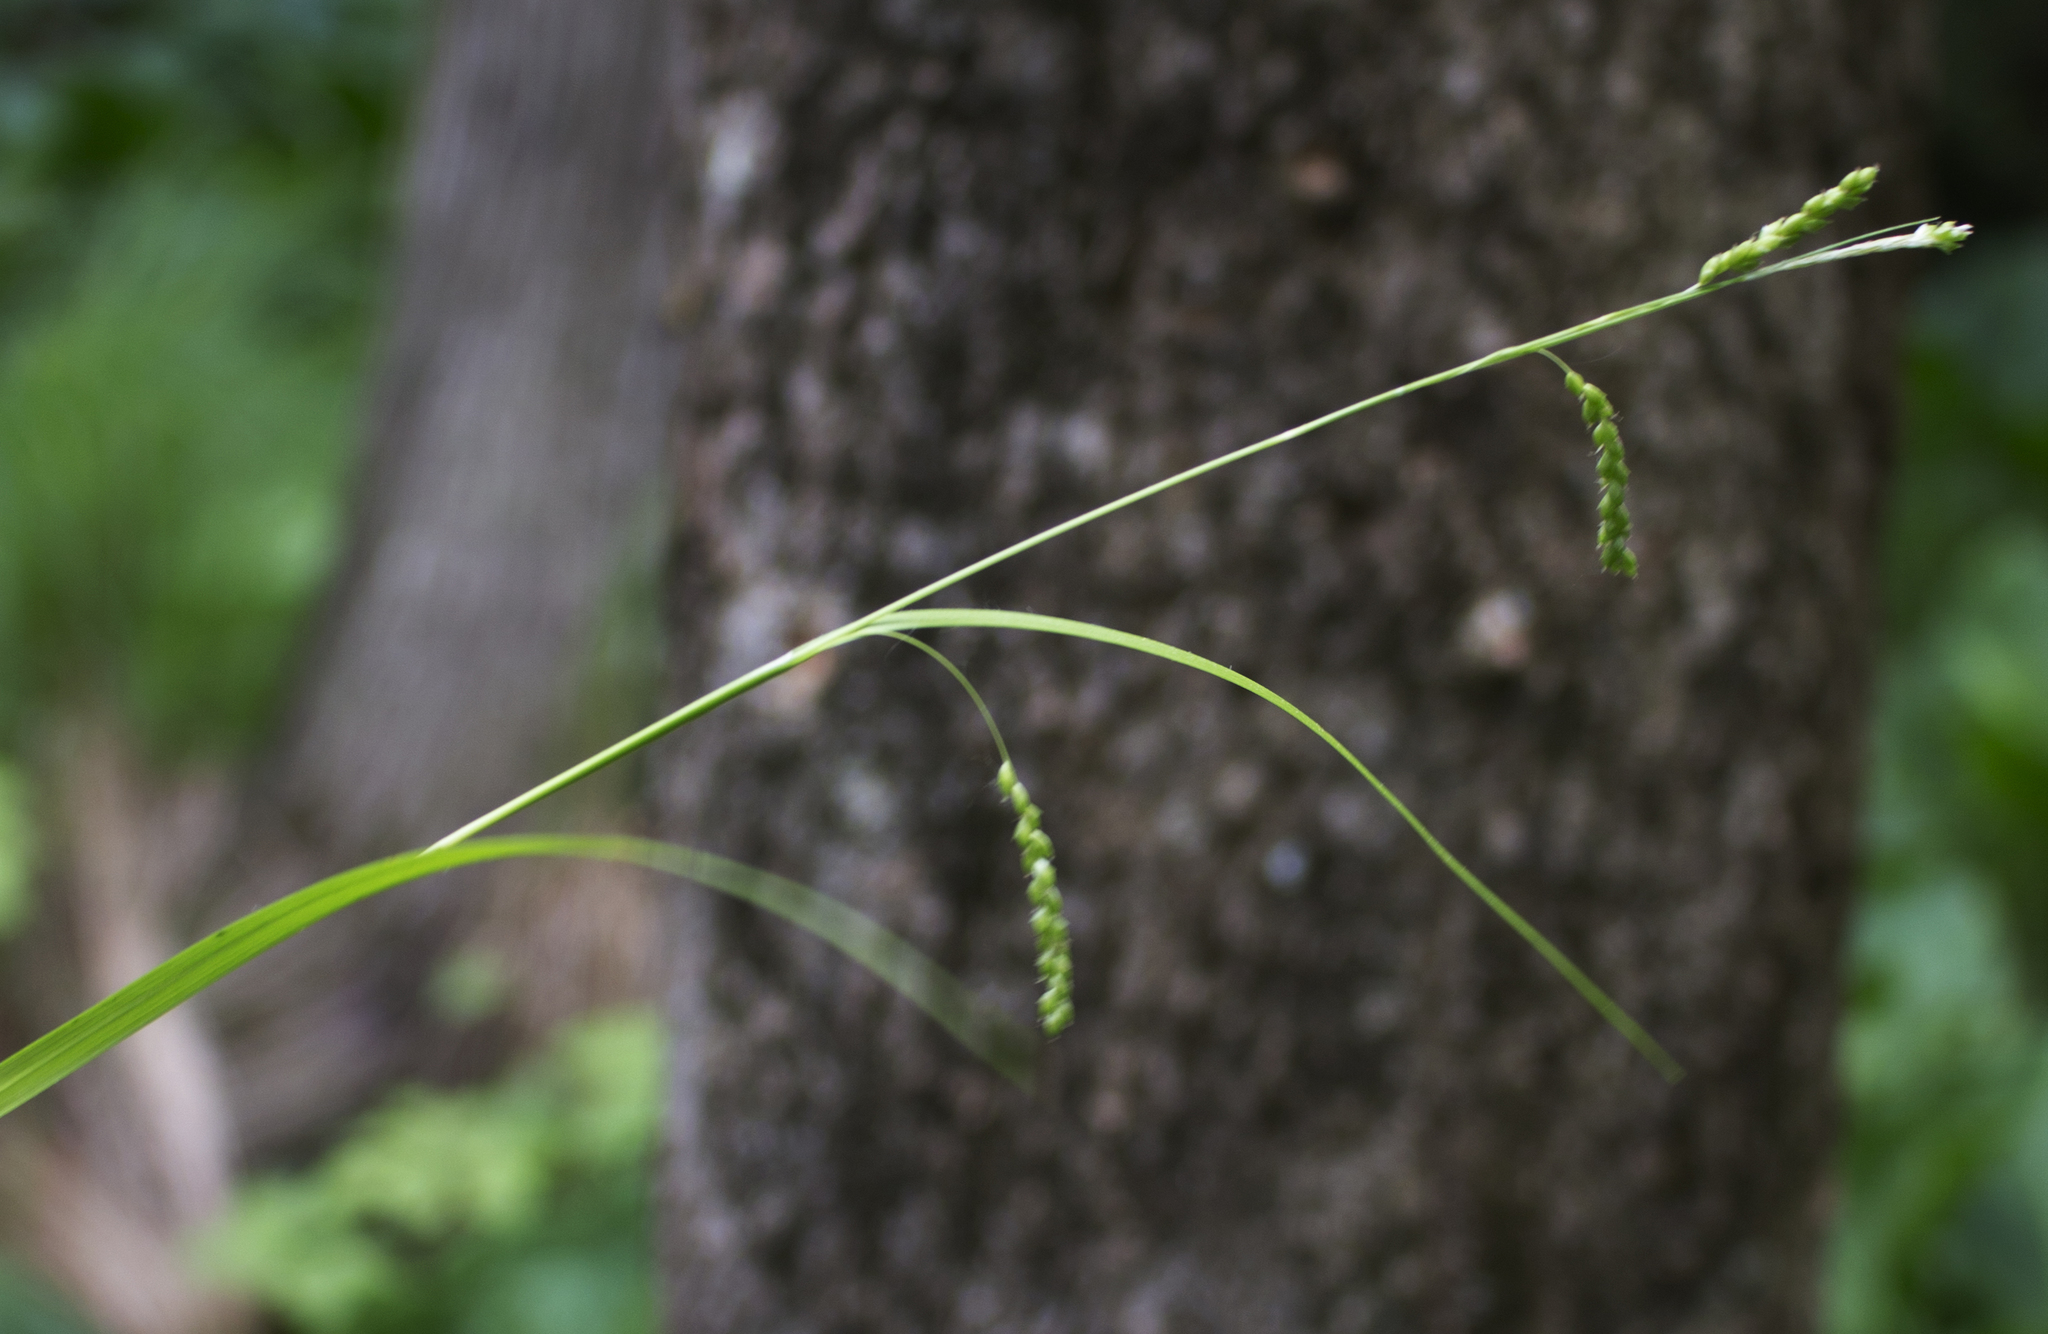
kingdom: Plantae
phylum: Tracheophyta
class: Liliopsida
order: Poales
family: Cyperaceae
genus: Carex
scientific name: Carex gracillima
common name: Graceful sedge
